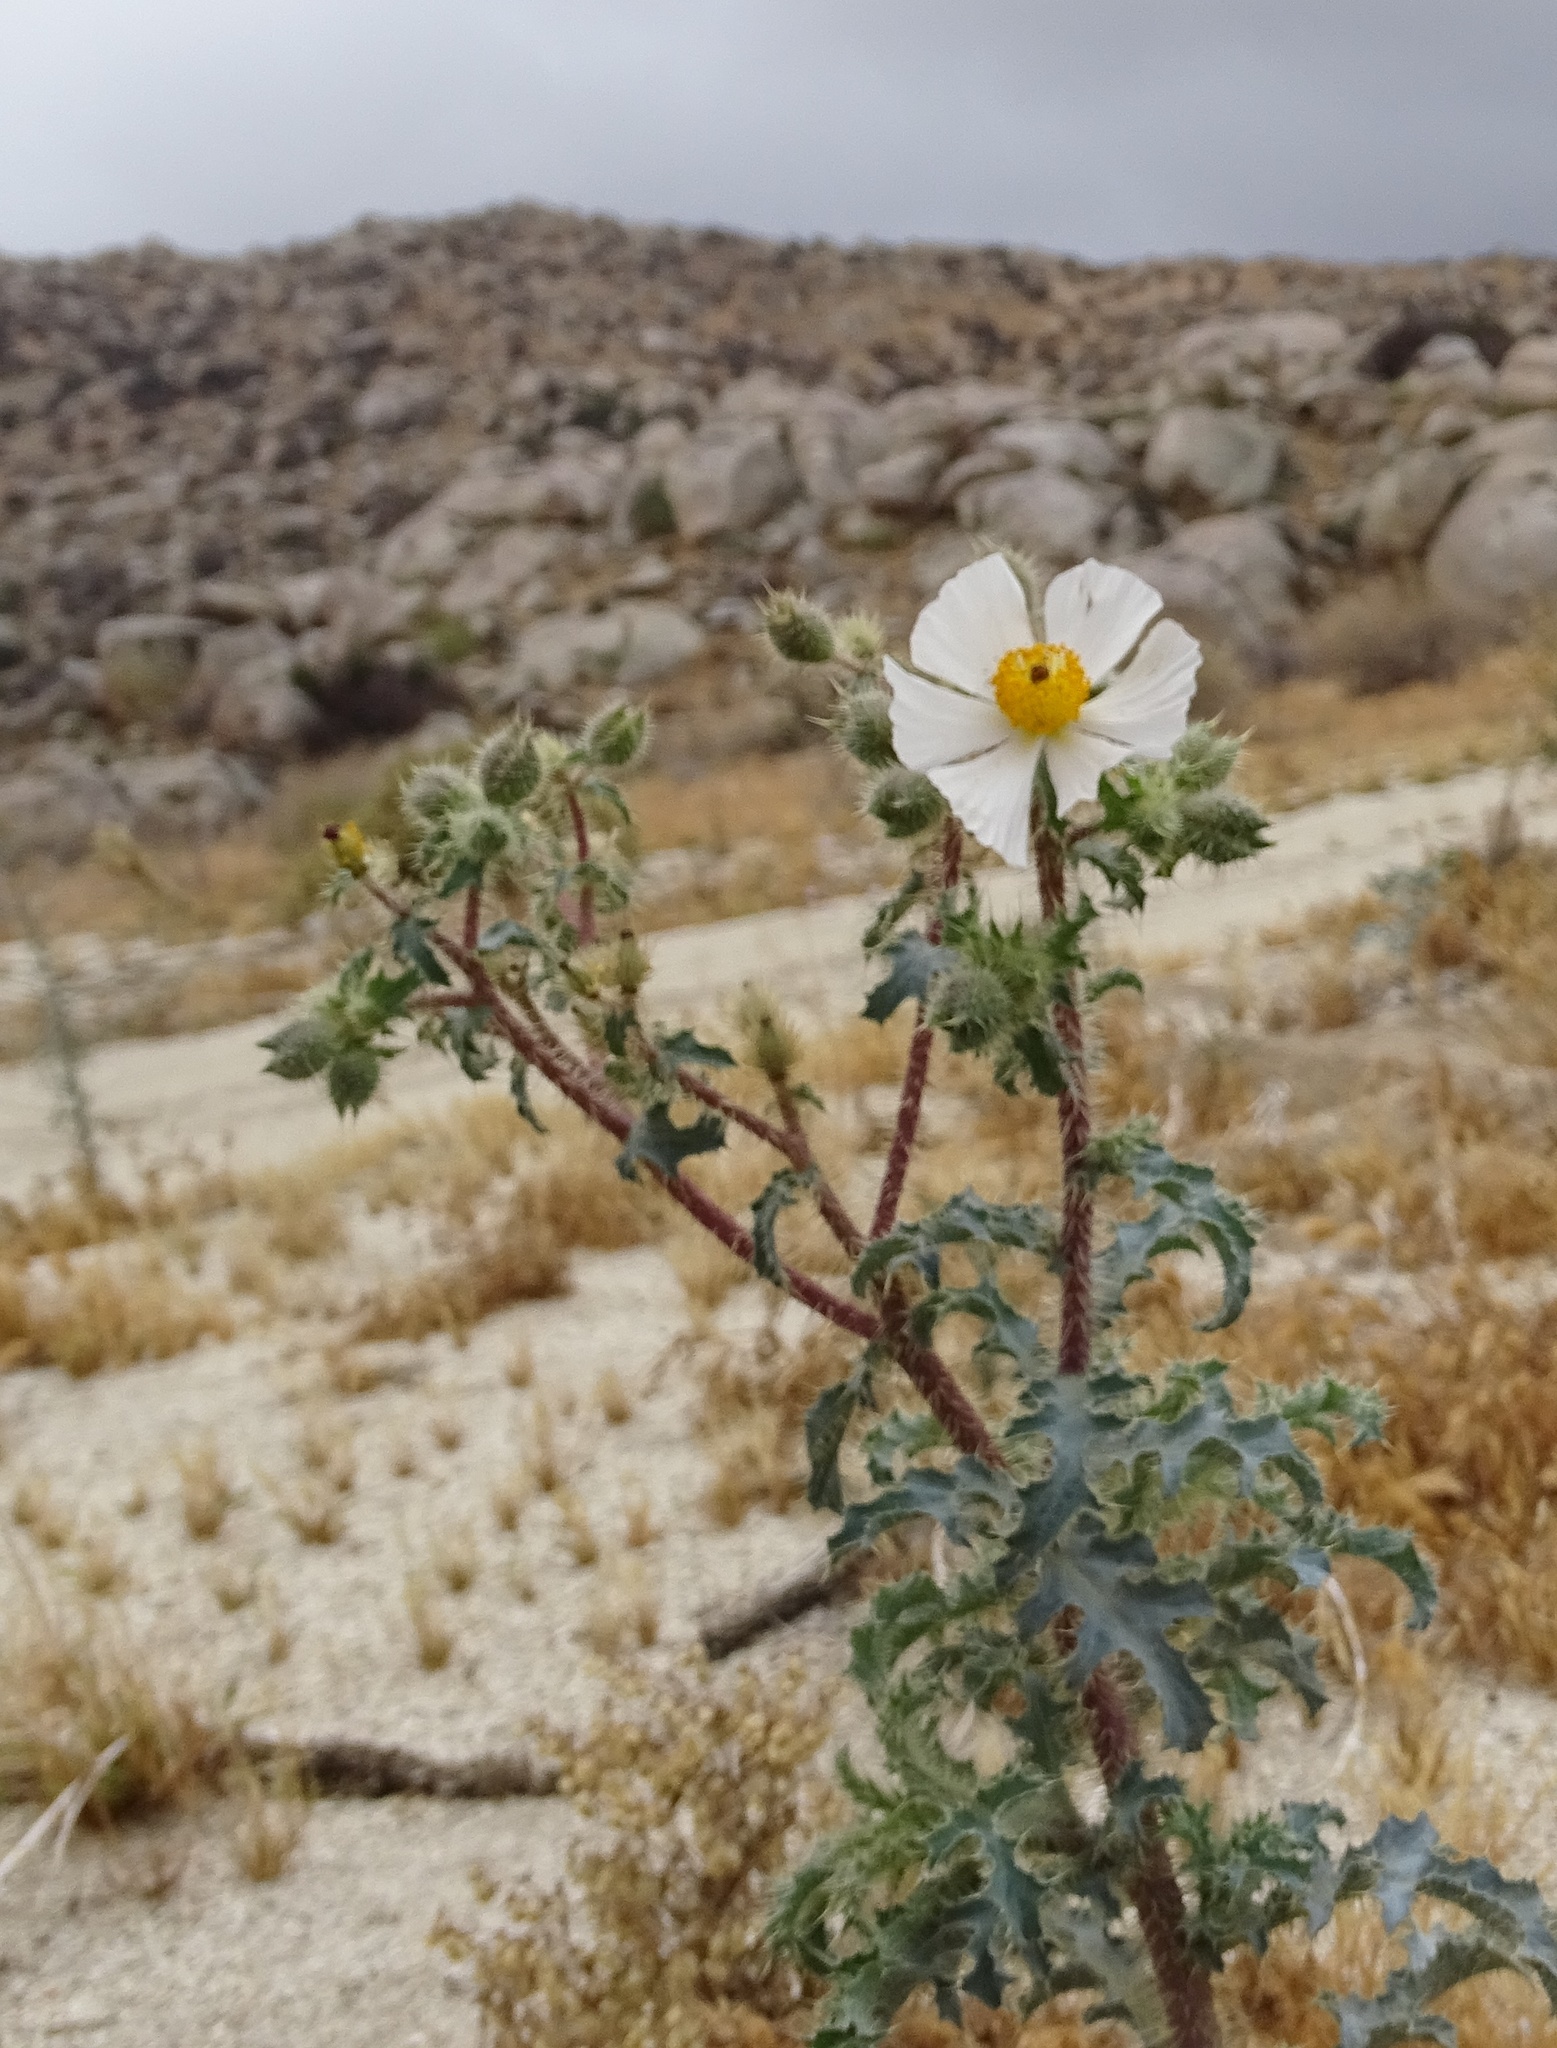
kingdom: Plantae
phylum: Tracheophyta
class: Magnoliopsida
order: Ranunculales
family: Papaveraceae
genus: Argemone
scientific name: Argemone munita
